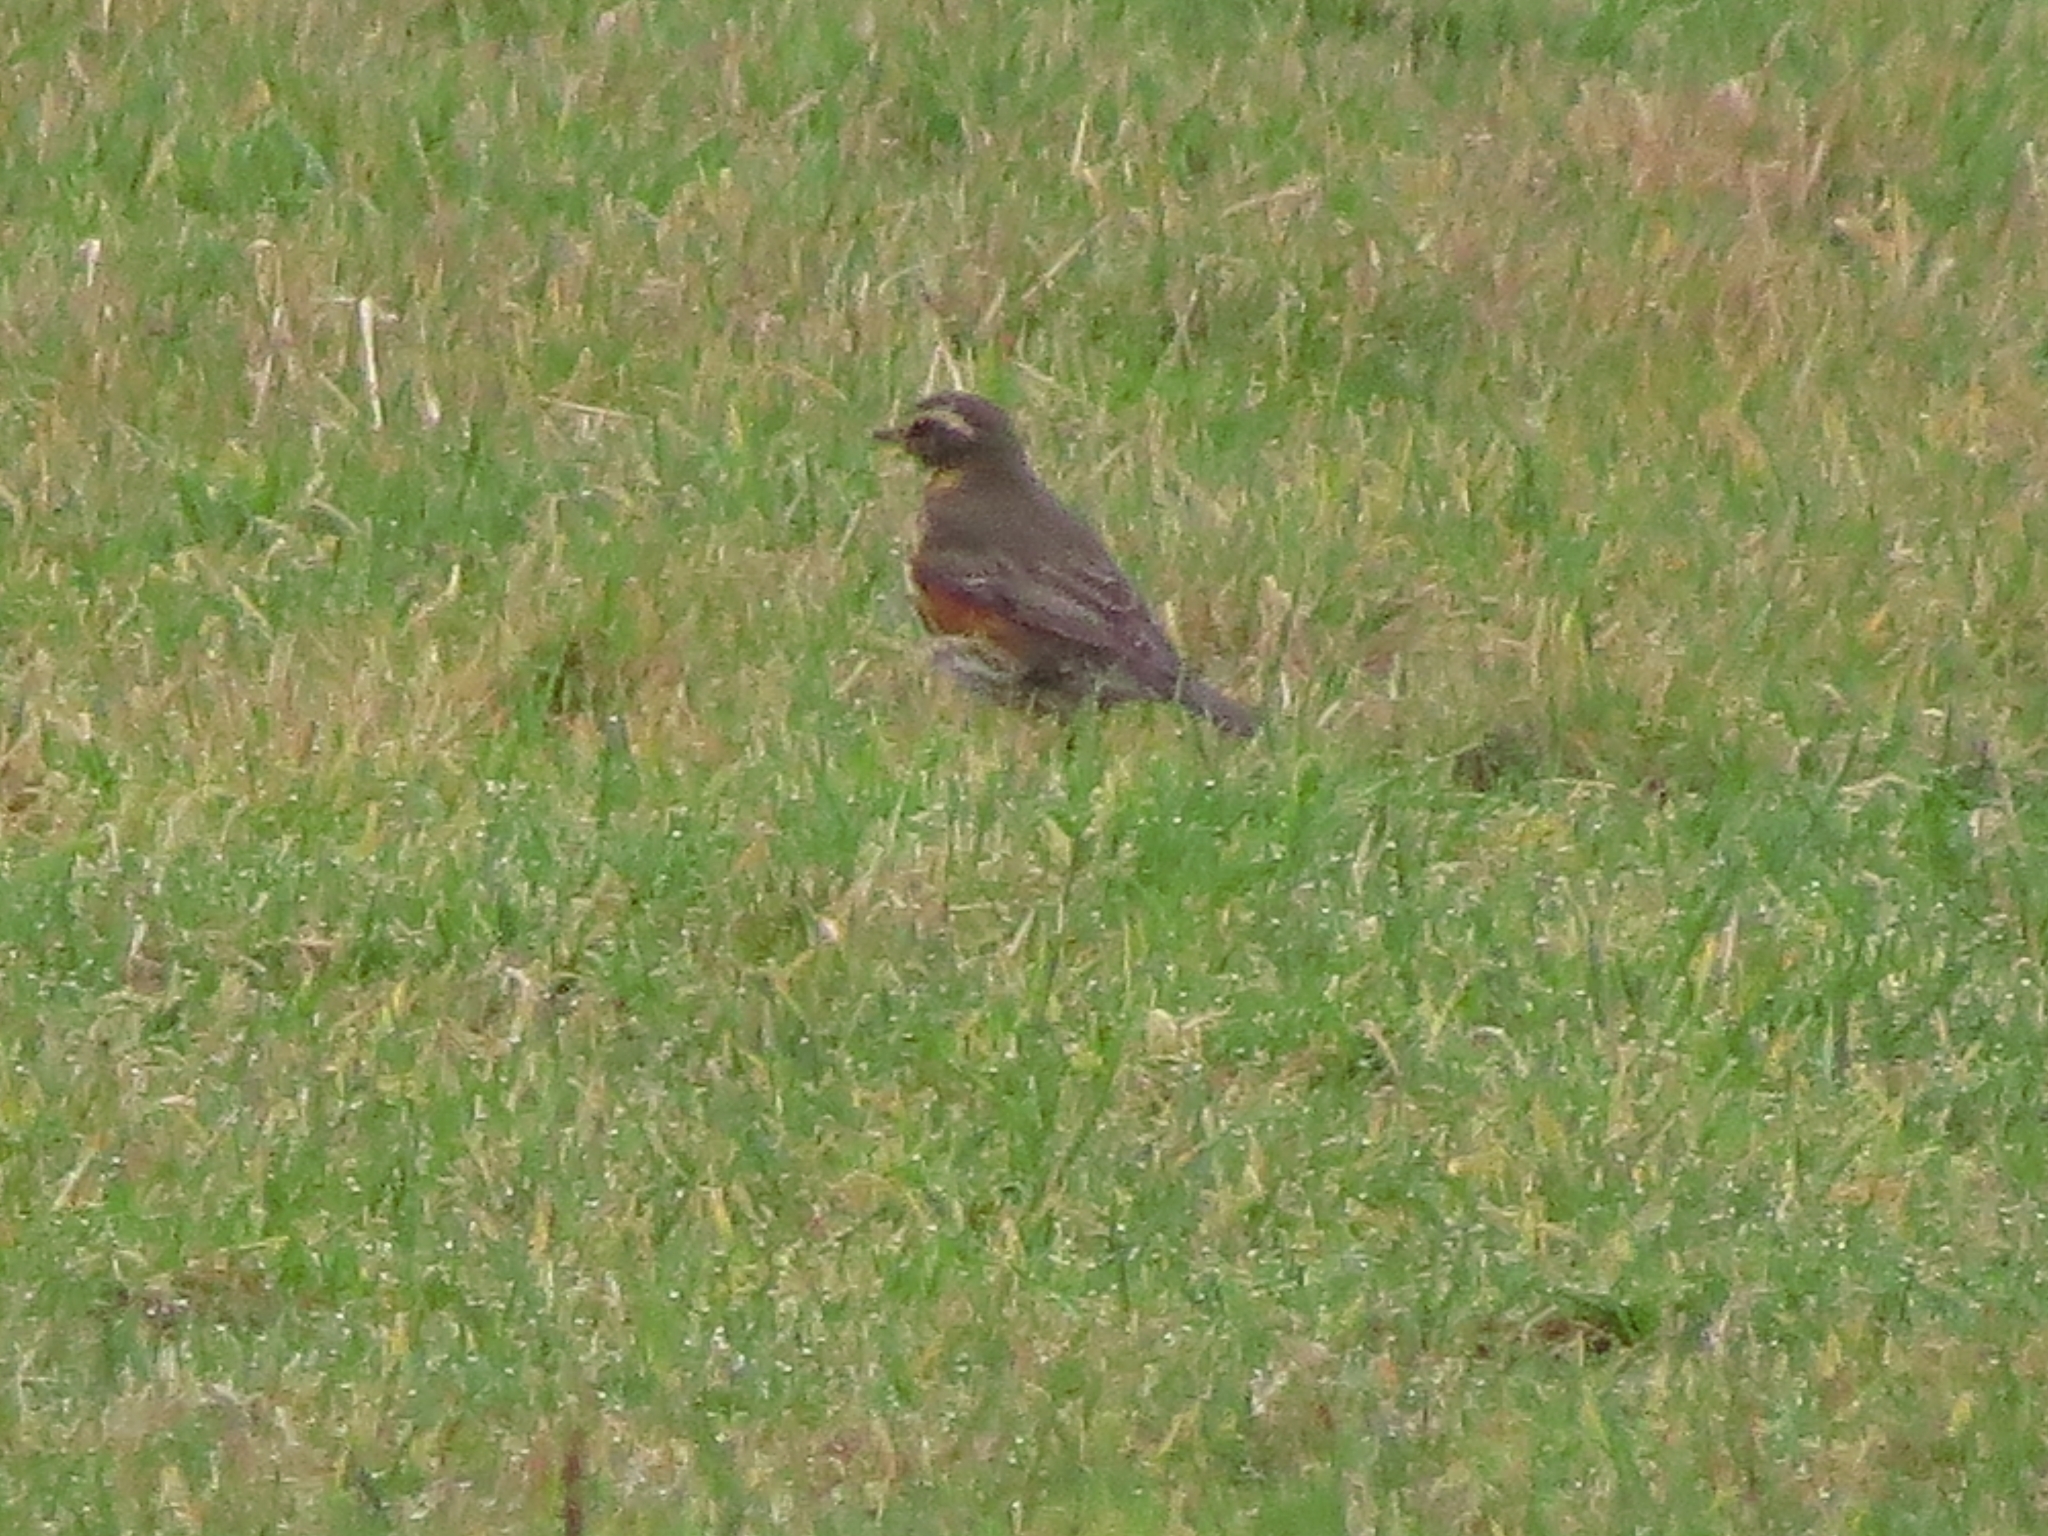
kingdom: Animalia
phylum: Chordata
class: Aves
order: Passeriformes
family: Turdidae
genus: Turdus
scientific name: Turdus iliacus
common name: Redwing
